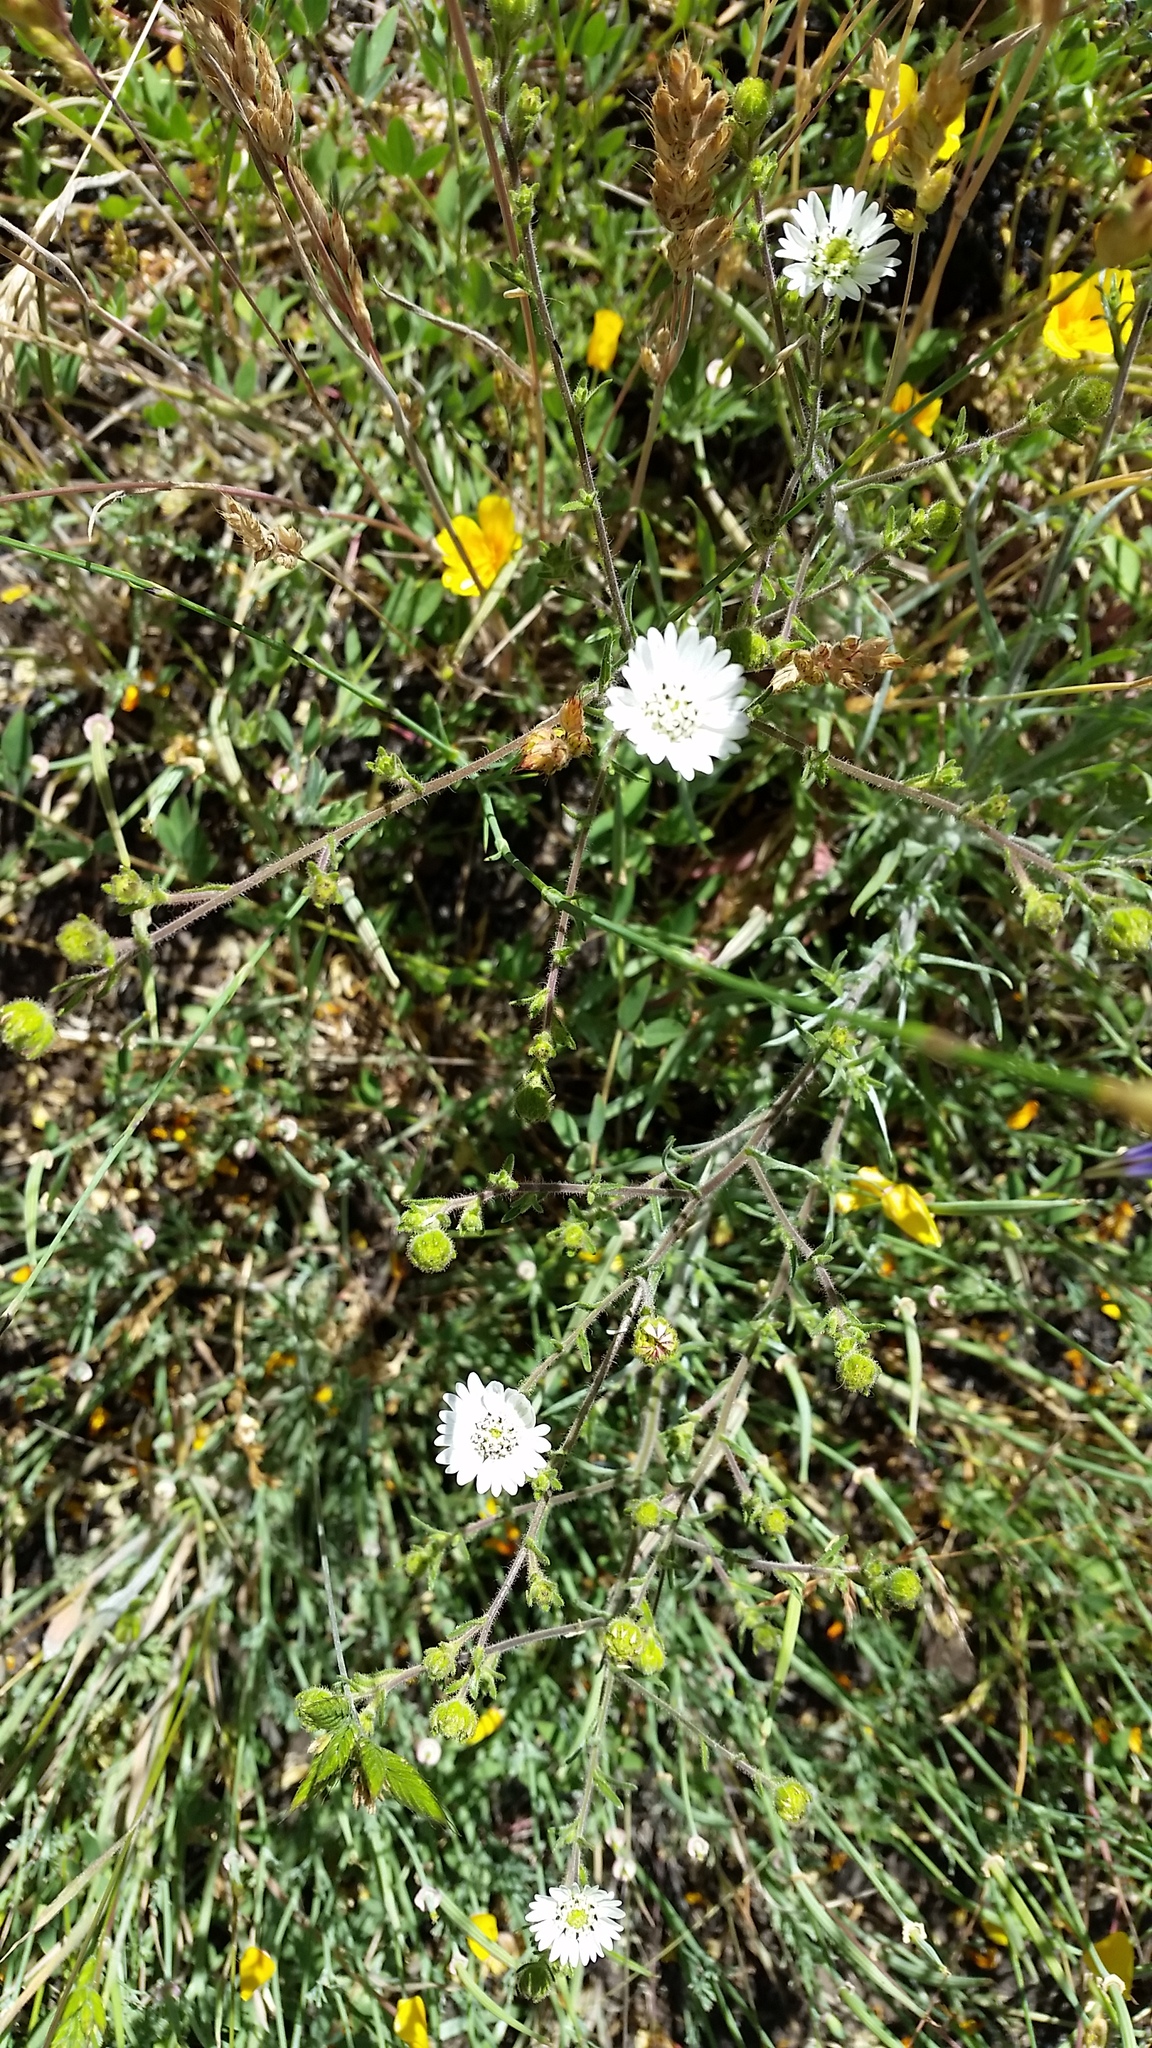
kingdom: Plantae
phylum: Tracheophyta
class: Magnoliopsida
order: Asterales
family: Asteraceae
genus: Hemizonia
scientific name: Hemizonia congesta
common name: Hayfield tarweed
